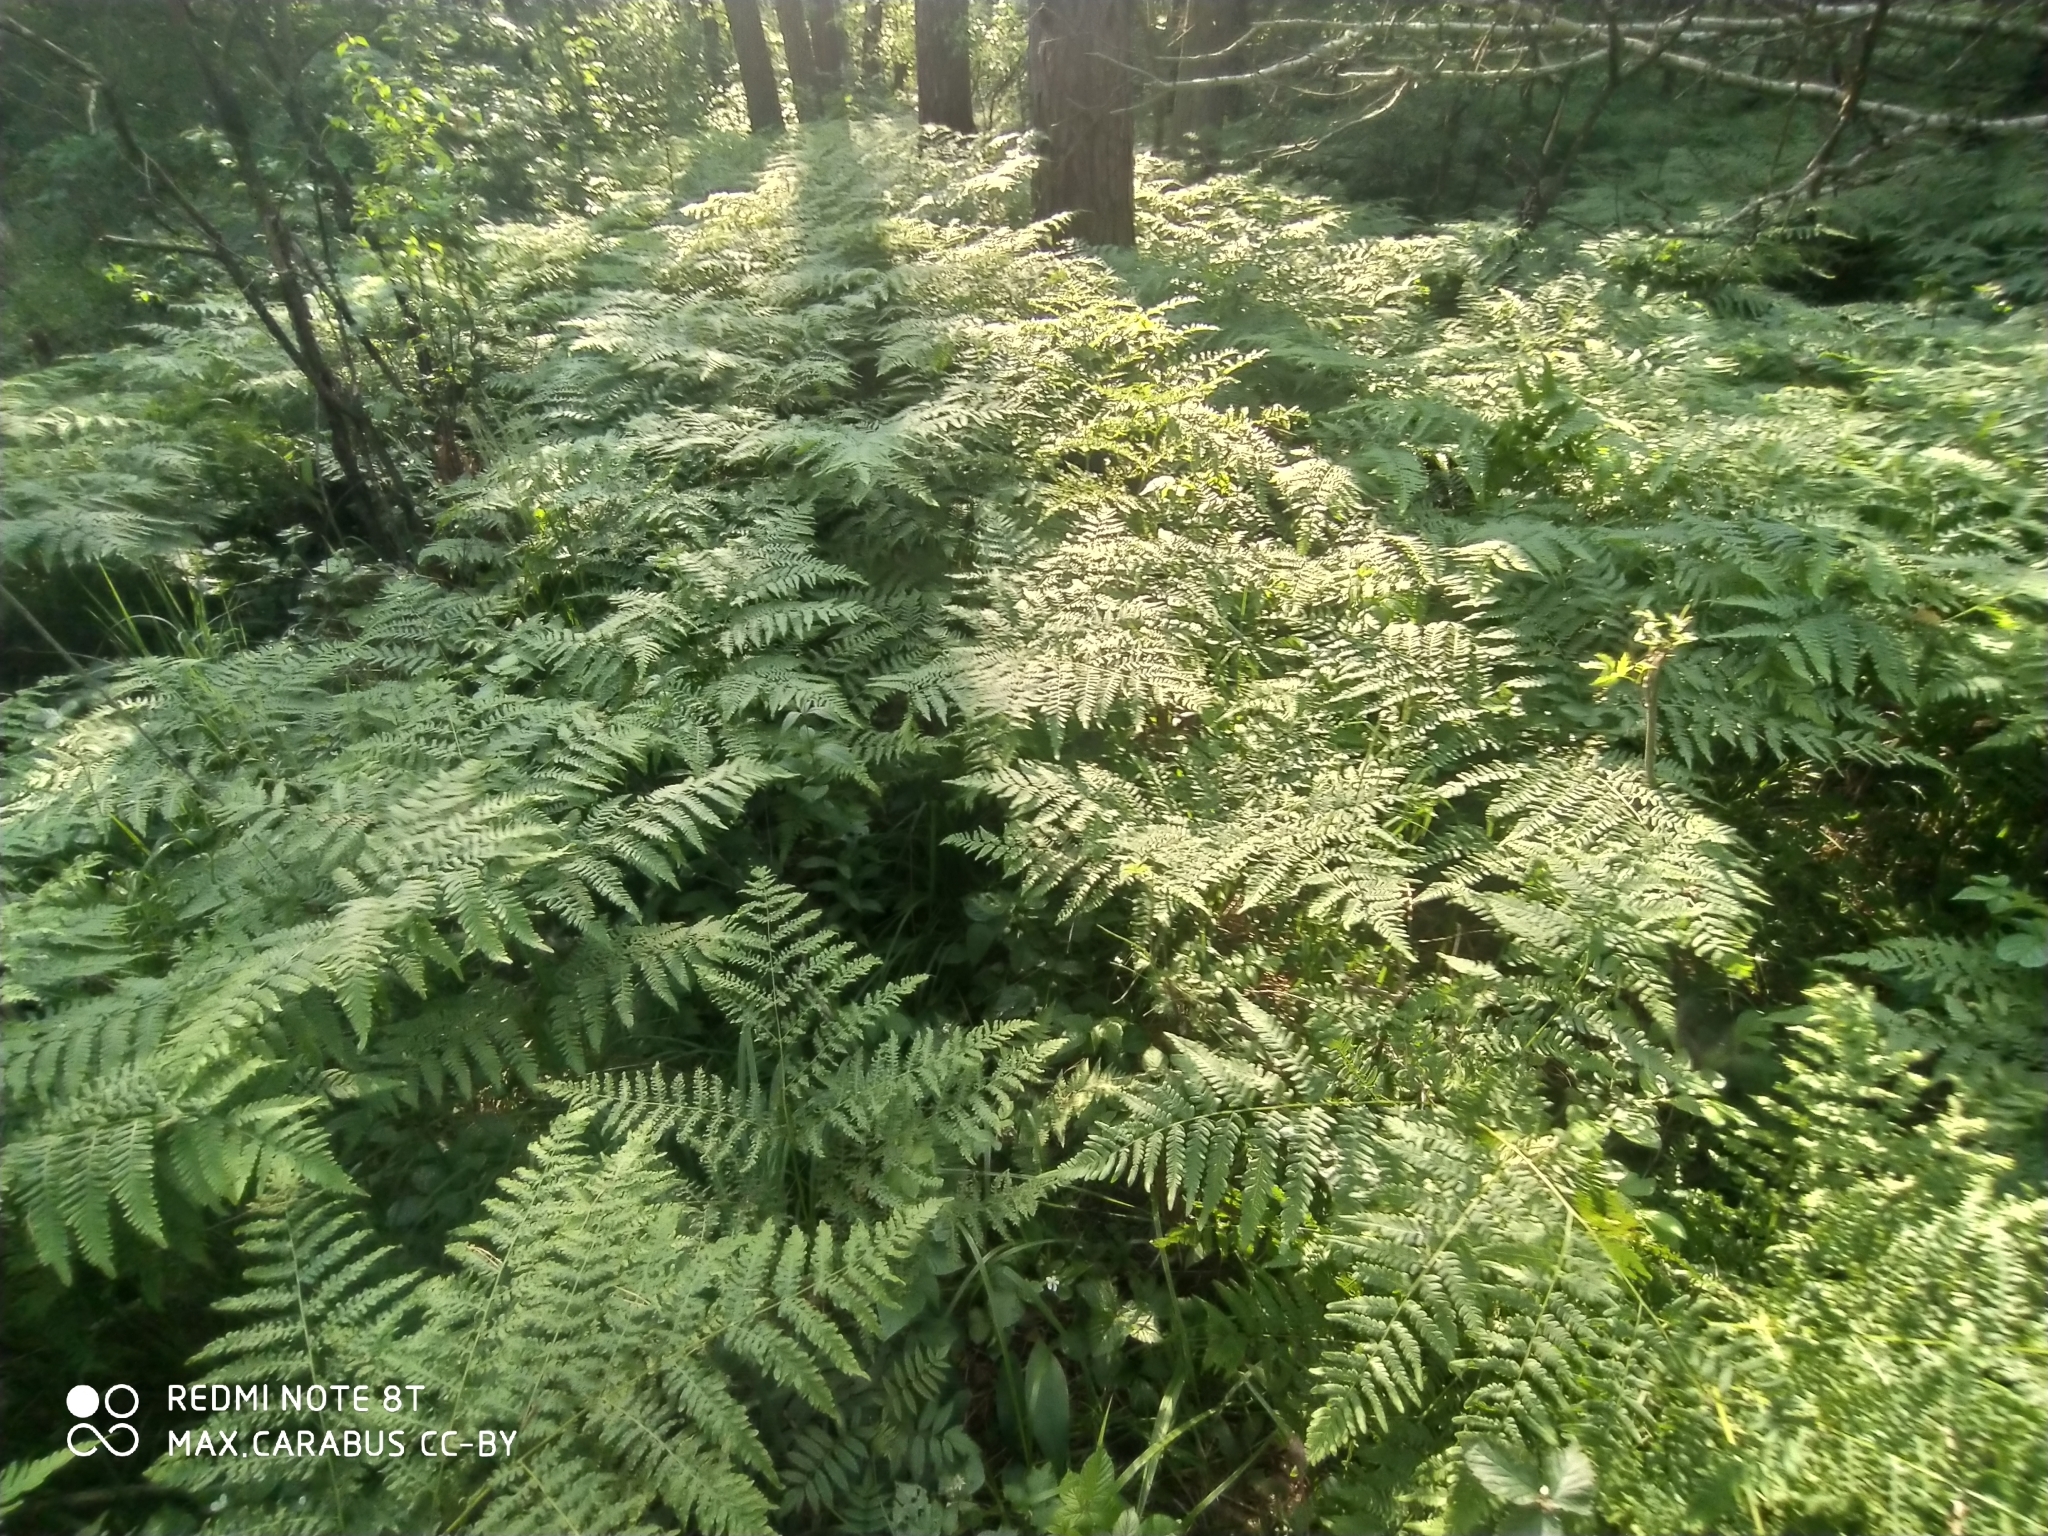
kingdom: Plantae
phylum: Tracheophyta
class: Polypodiopsida
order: Polypodiales
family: Dennstaedtiaceae
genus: Pteridium
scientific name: Pteridium aquilinum
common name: Bracken
